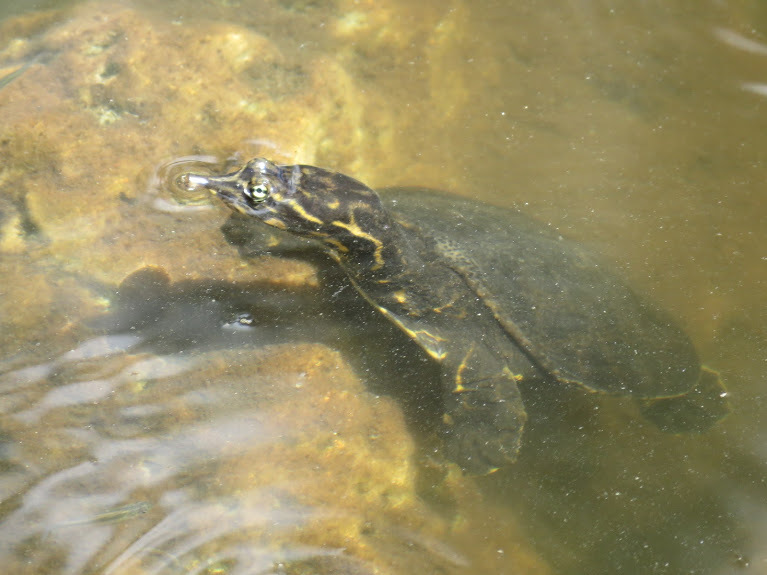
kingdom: Animalia
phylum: Chordata
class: Testudines
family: Trionychidae
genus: Apalone
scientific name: Apalone ferox
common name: Florida softshell turtle
